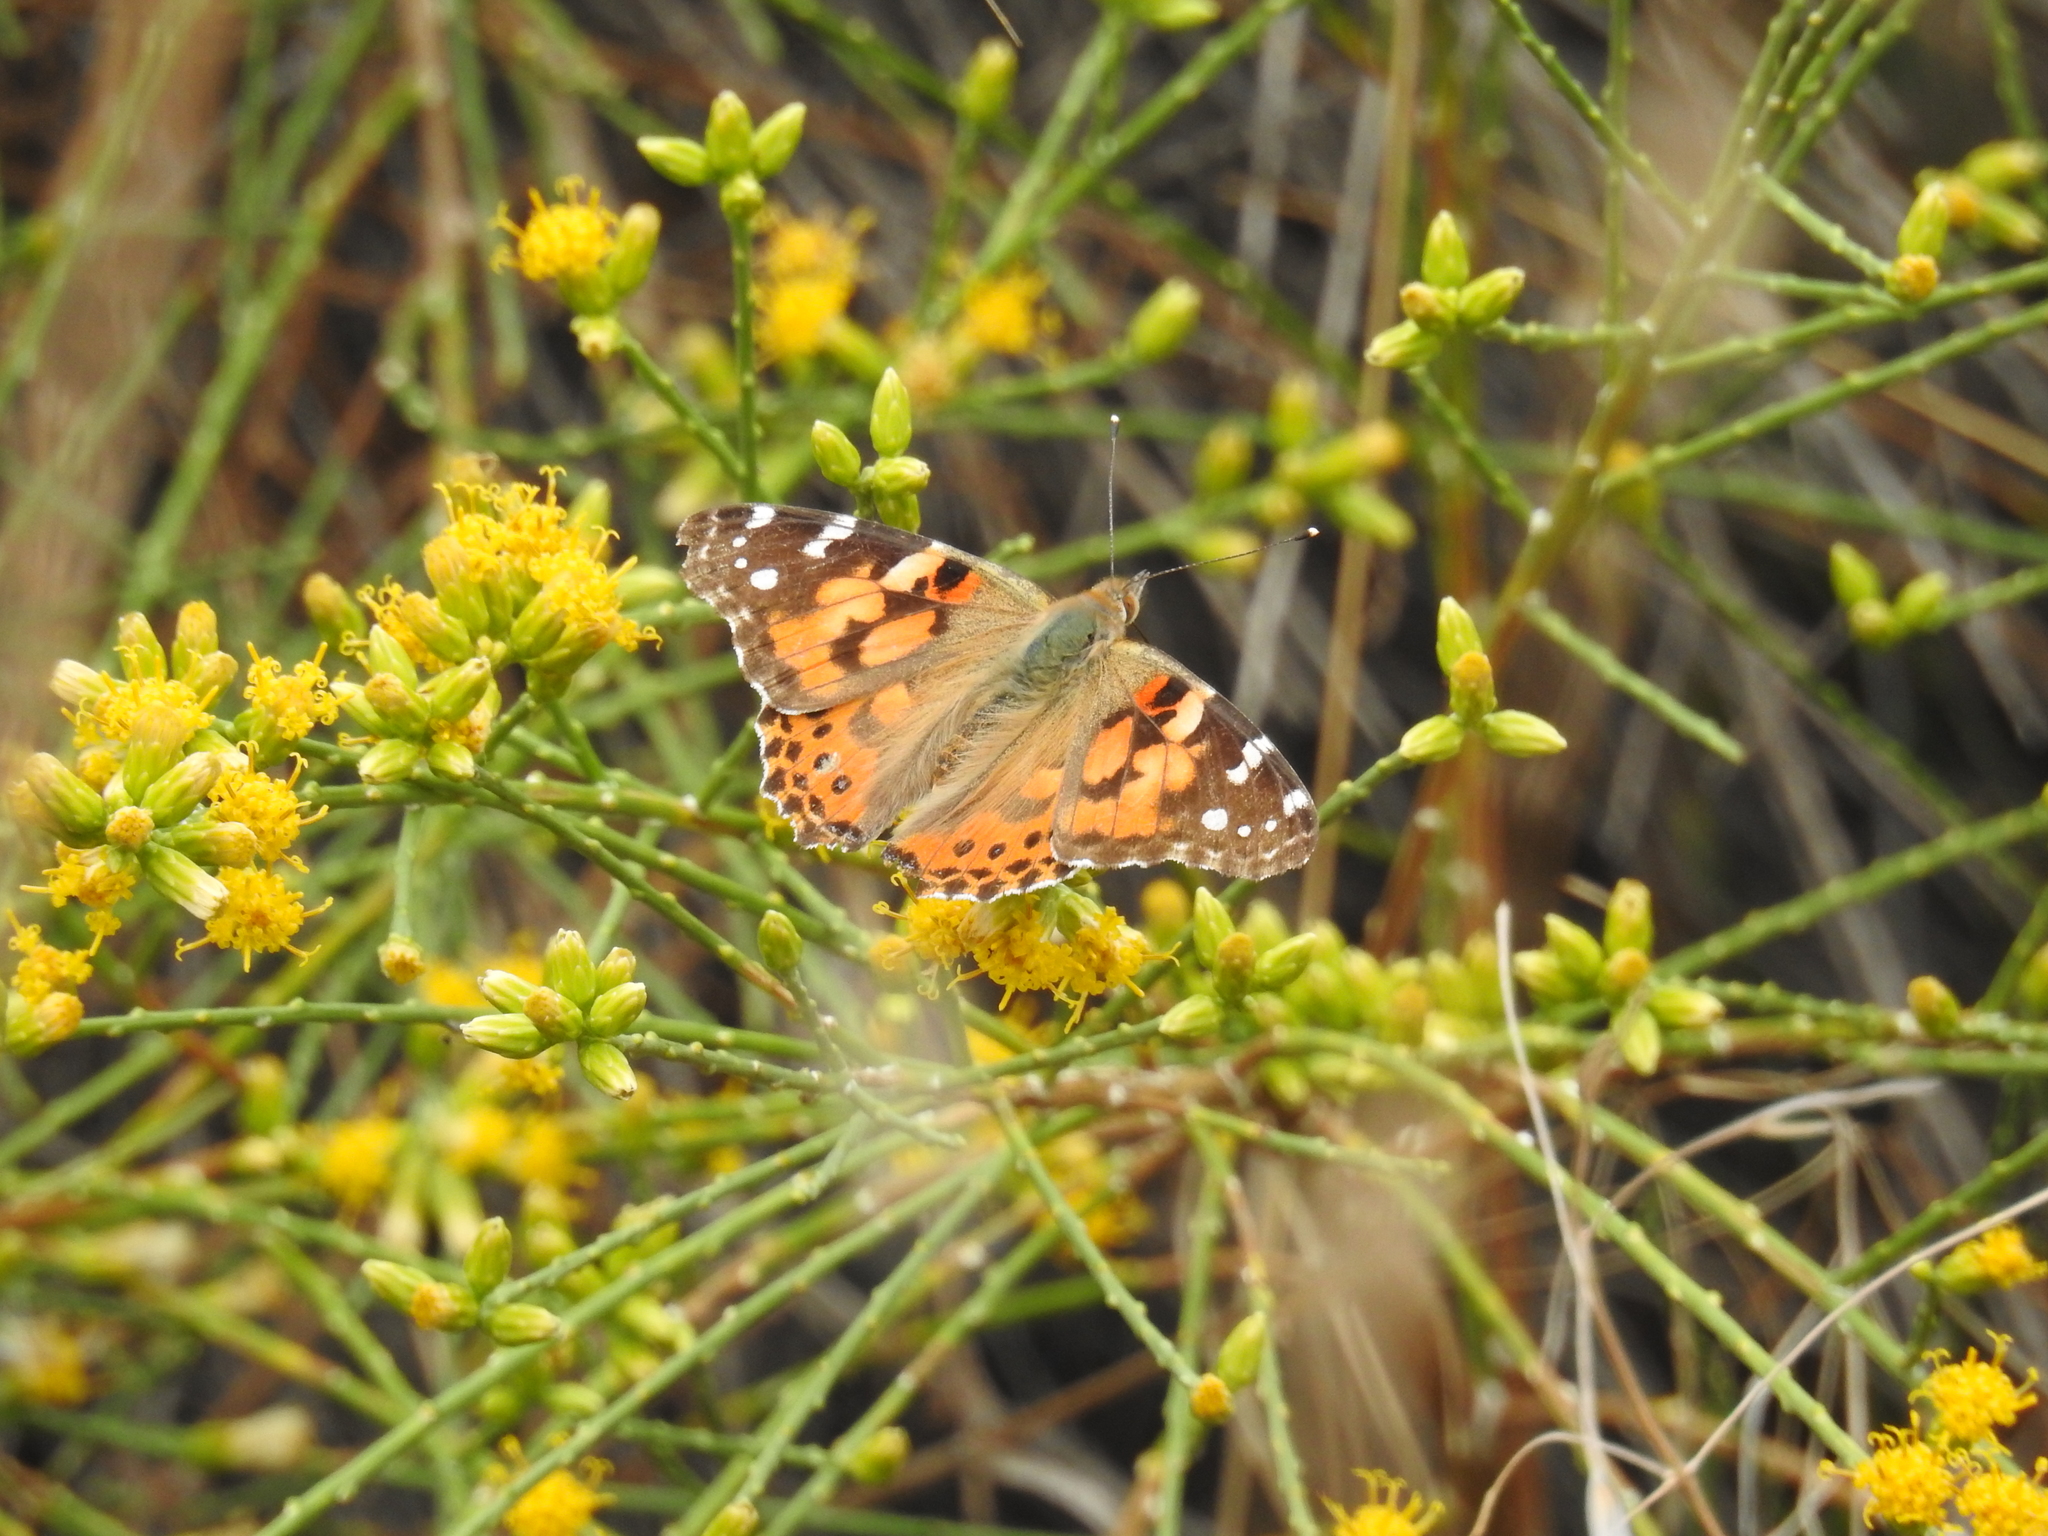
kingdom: Animalia
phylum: Arthropoda
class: Insecta
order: Lepidoptera
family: Nymphalidae
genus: Vanessa
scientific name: Vanessa cardui
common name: Painted lady
